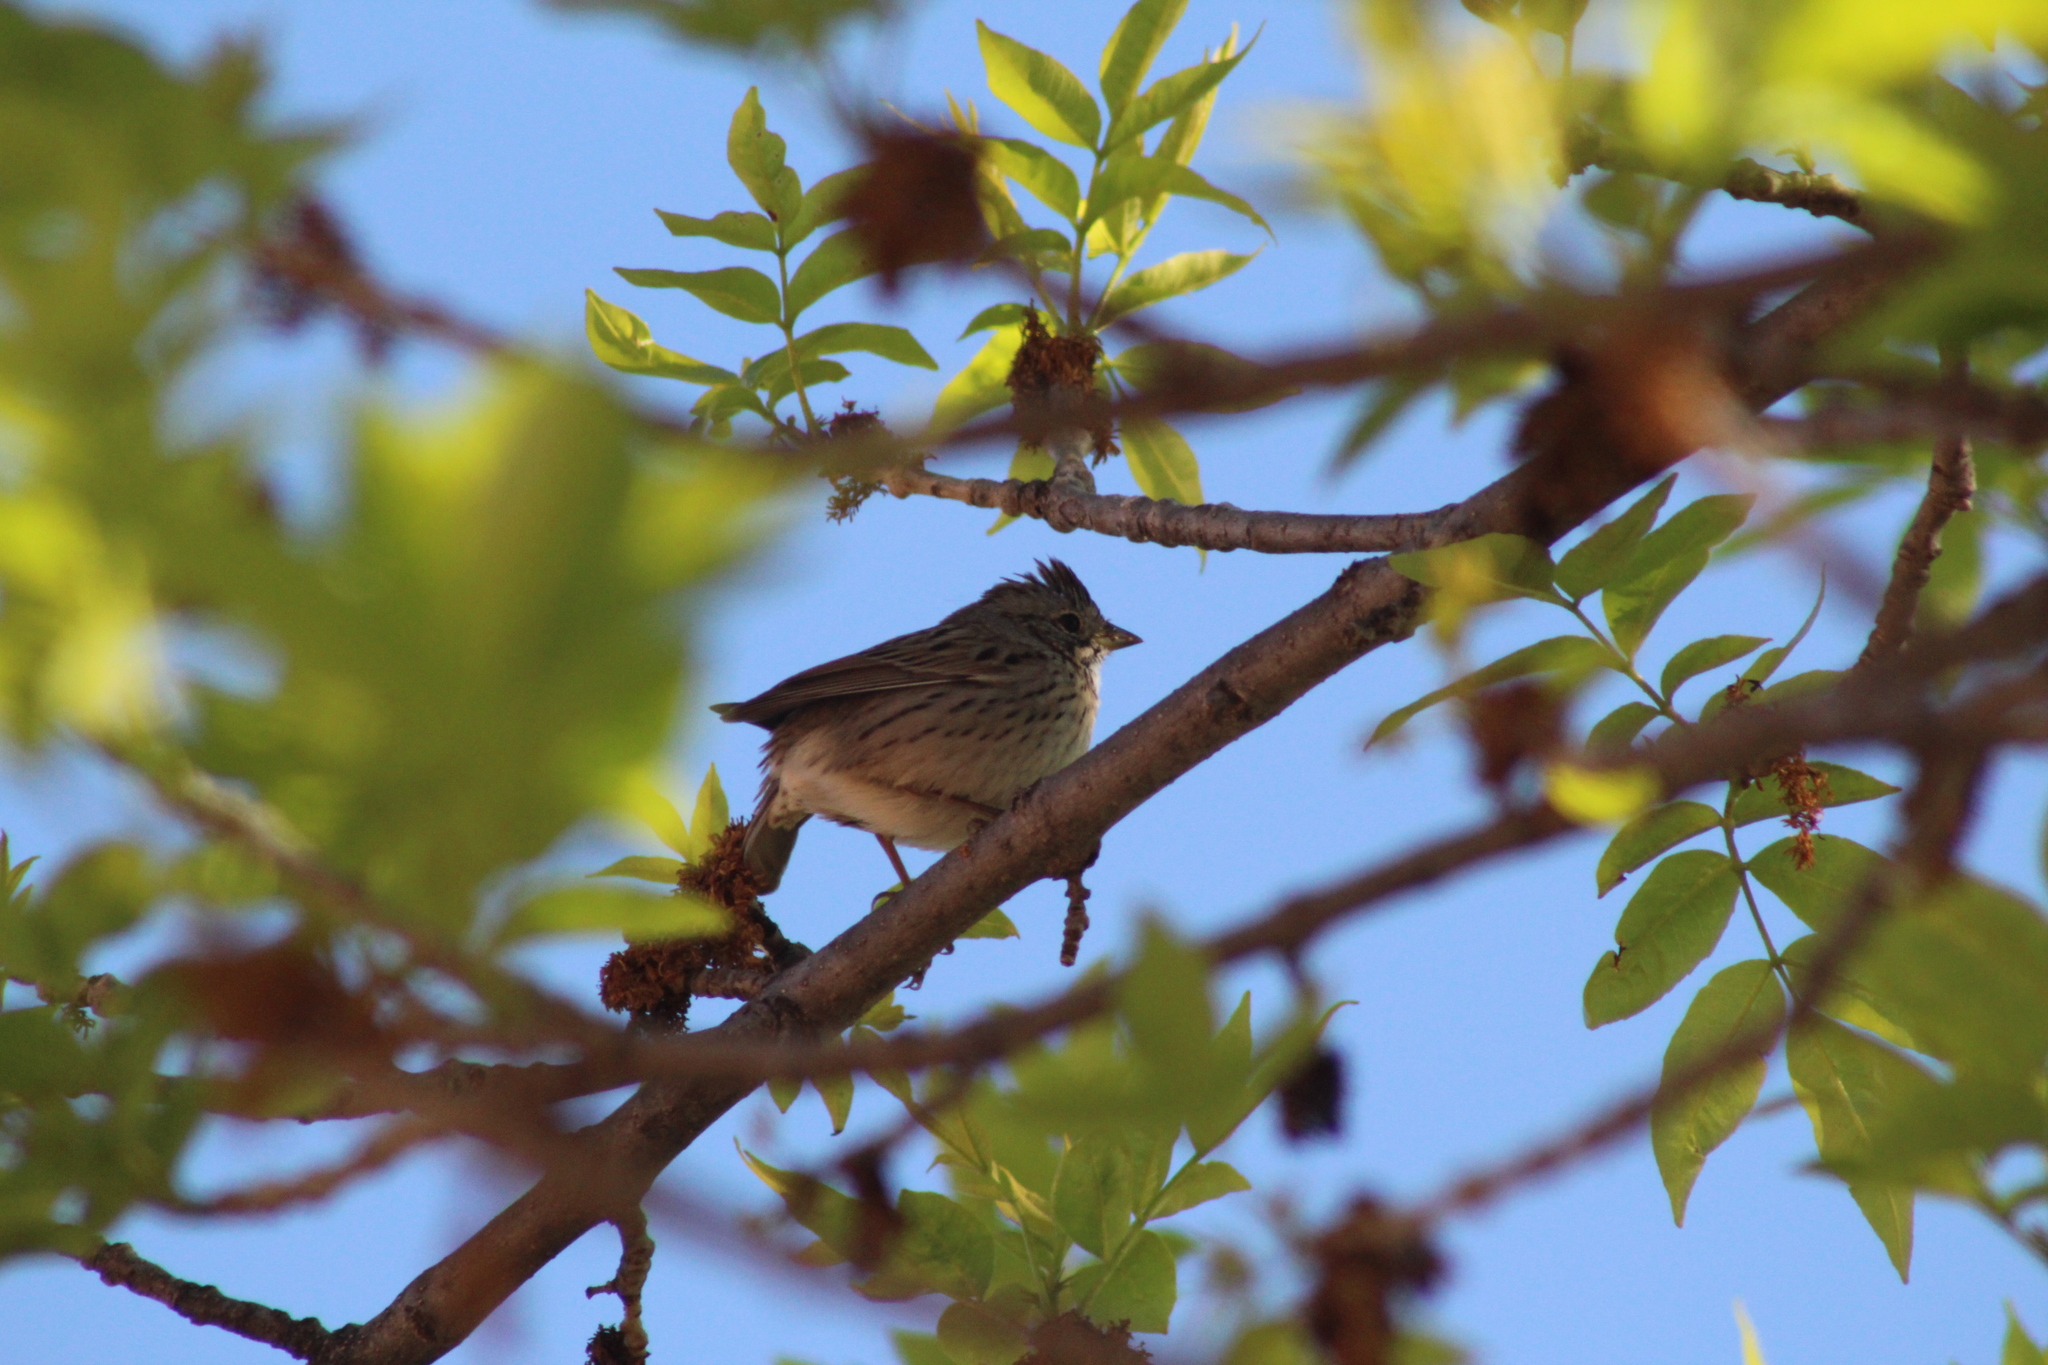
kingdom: Animalia
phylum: Chordata
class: Aves
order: Passeriformes
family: Passerellidae
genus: Melospiza
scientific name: Melospiza lincolnii
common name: Lincoln's sparrow
